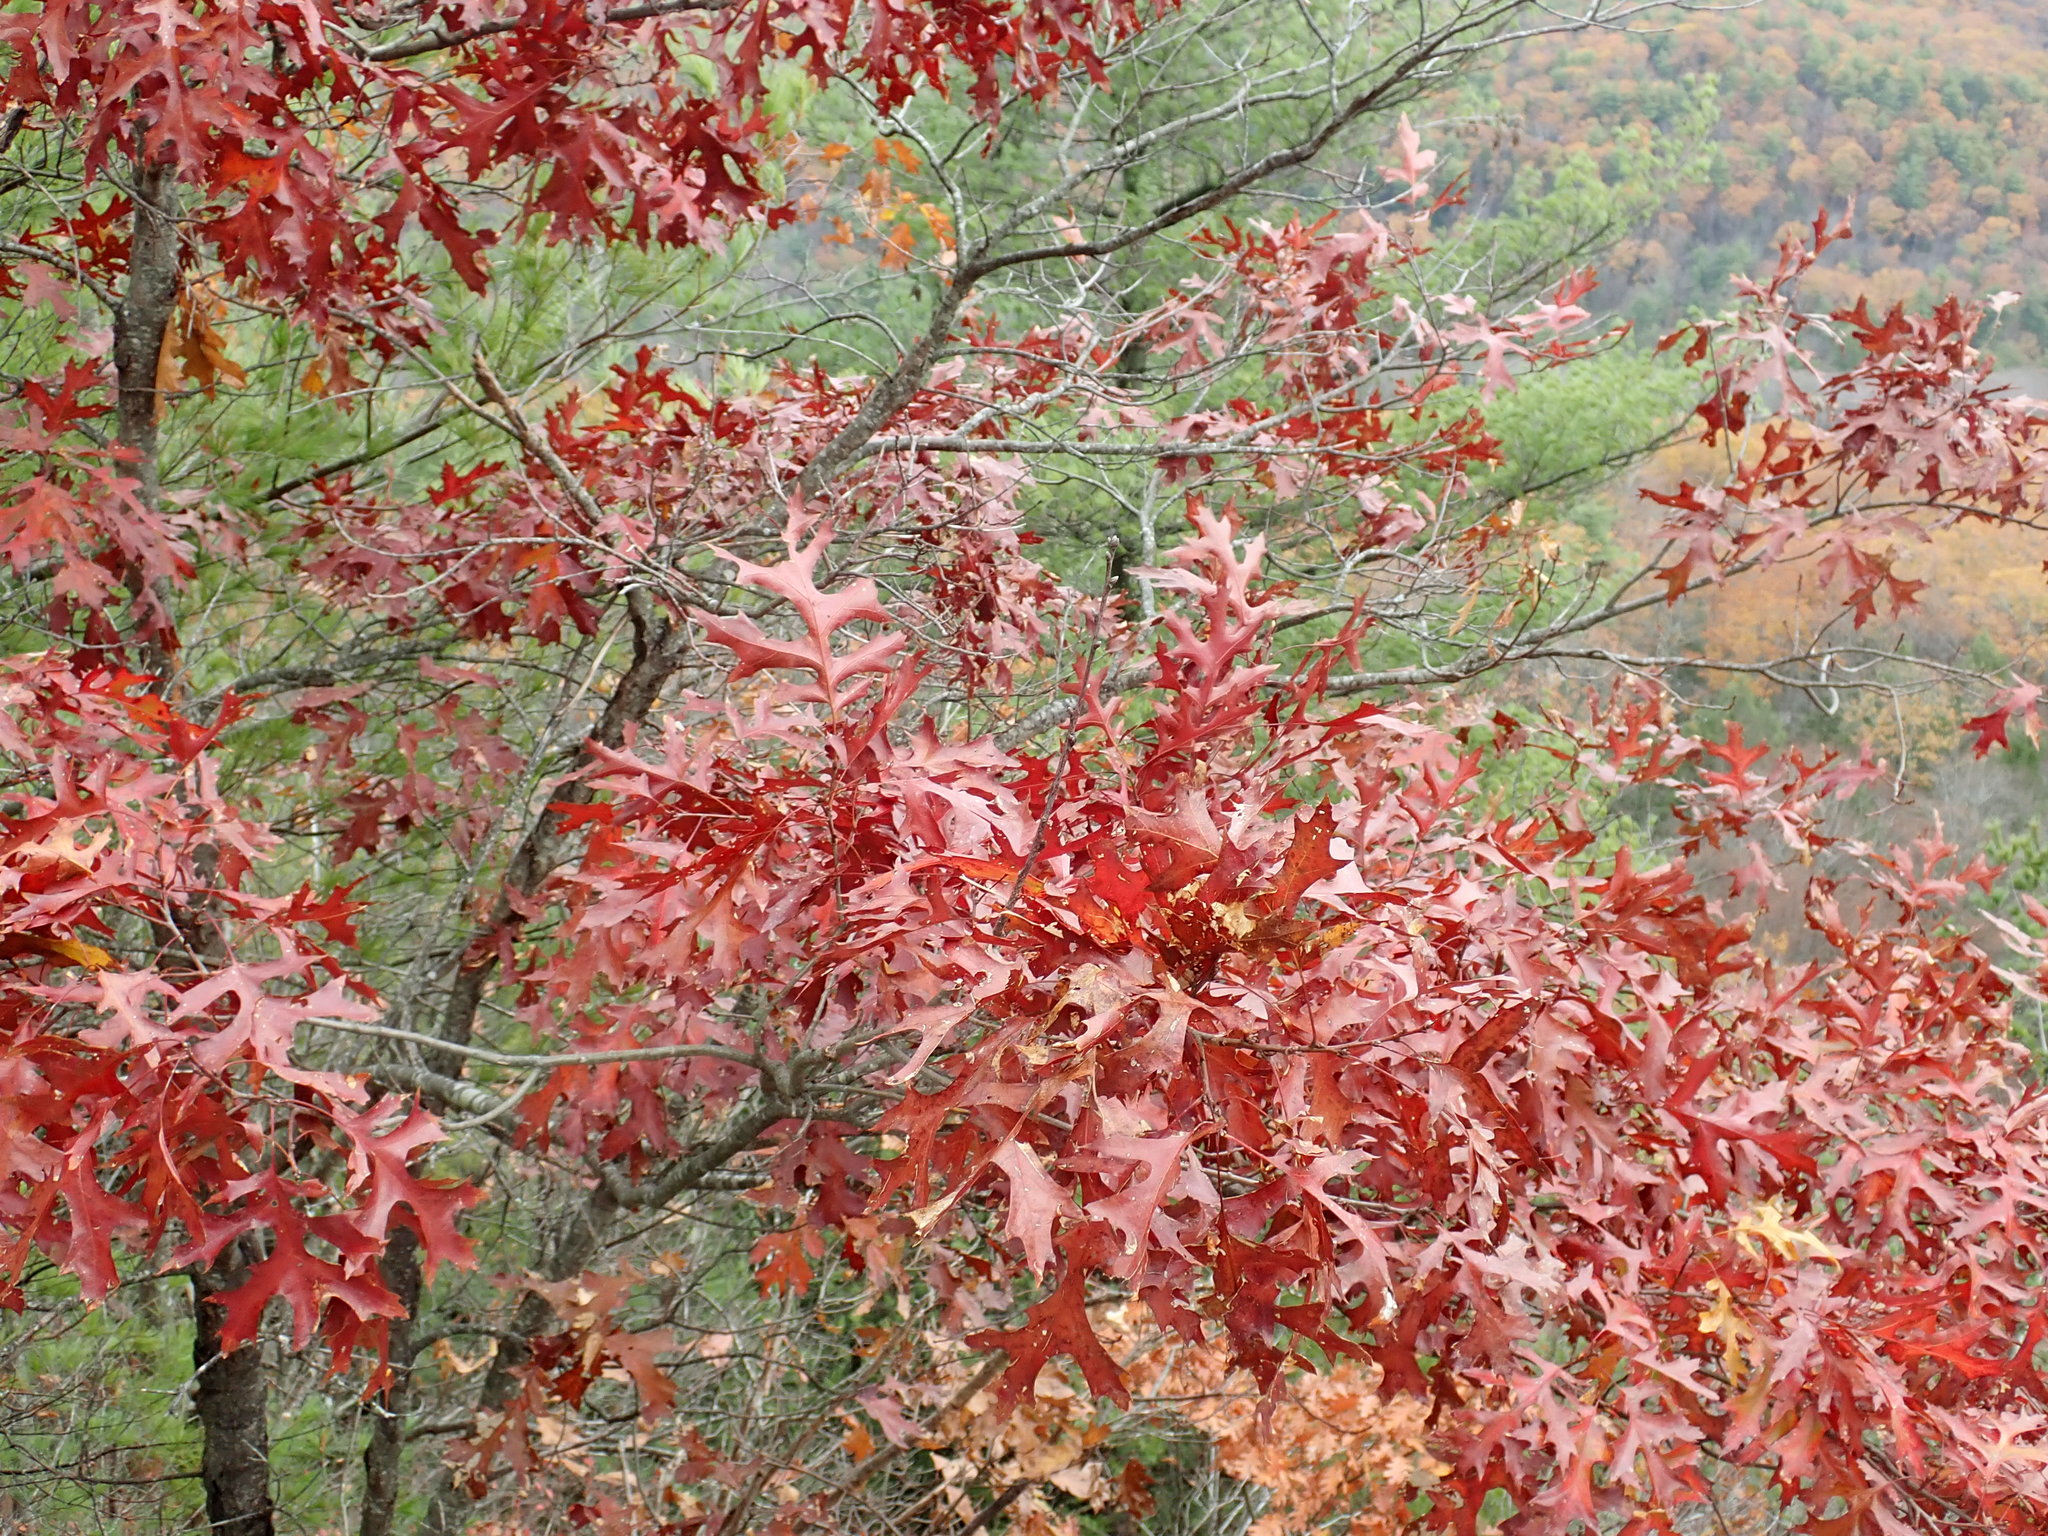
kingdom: Plantae
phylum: Tracheophyta
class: Magnoliopsida
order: Fagales
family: Fagaceae
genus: Quercus
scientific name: Quercus coccinea
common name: Scarlet oak
